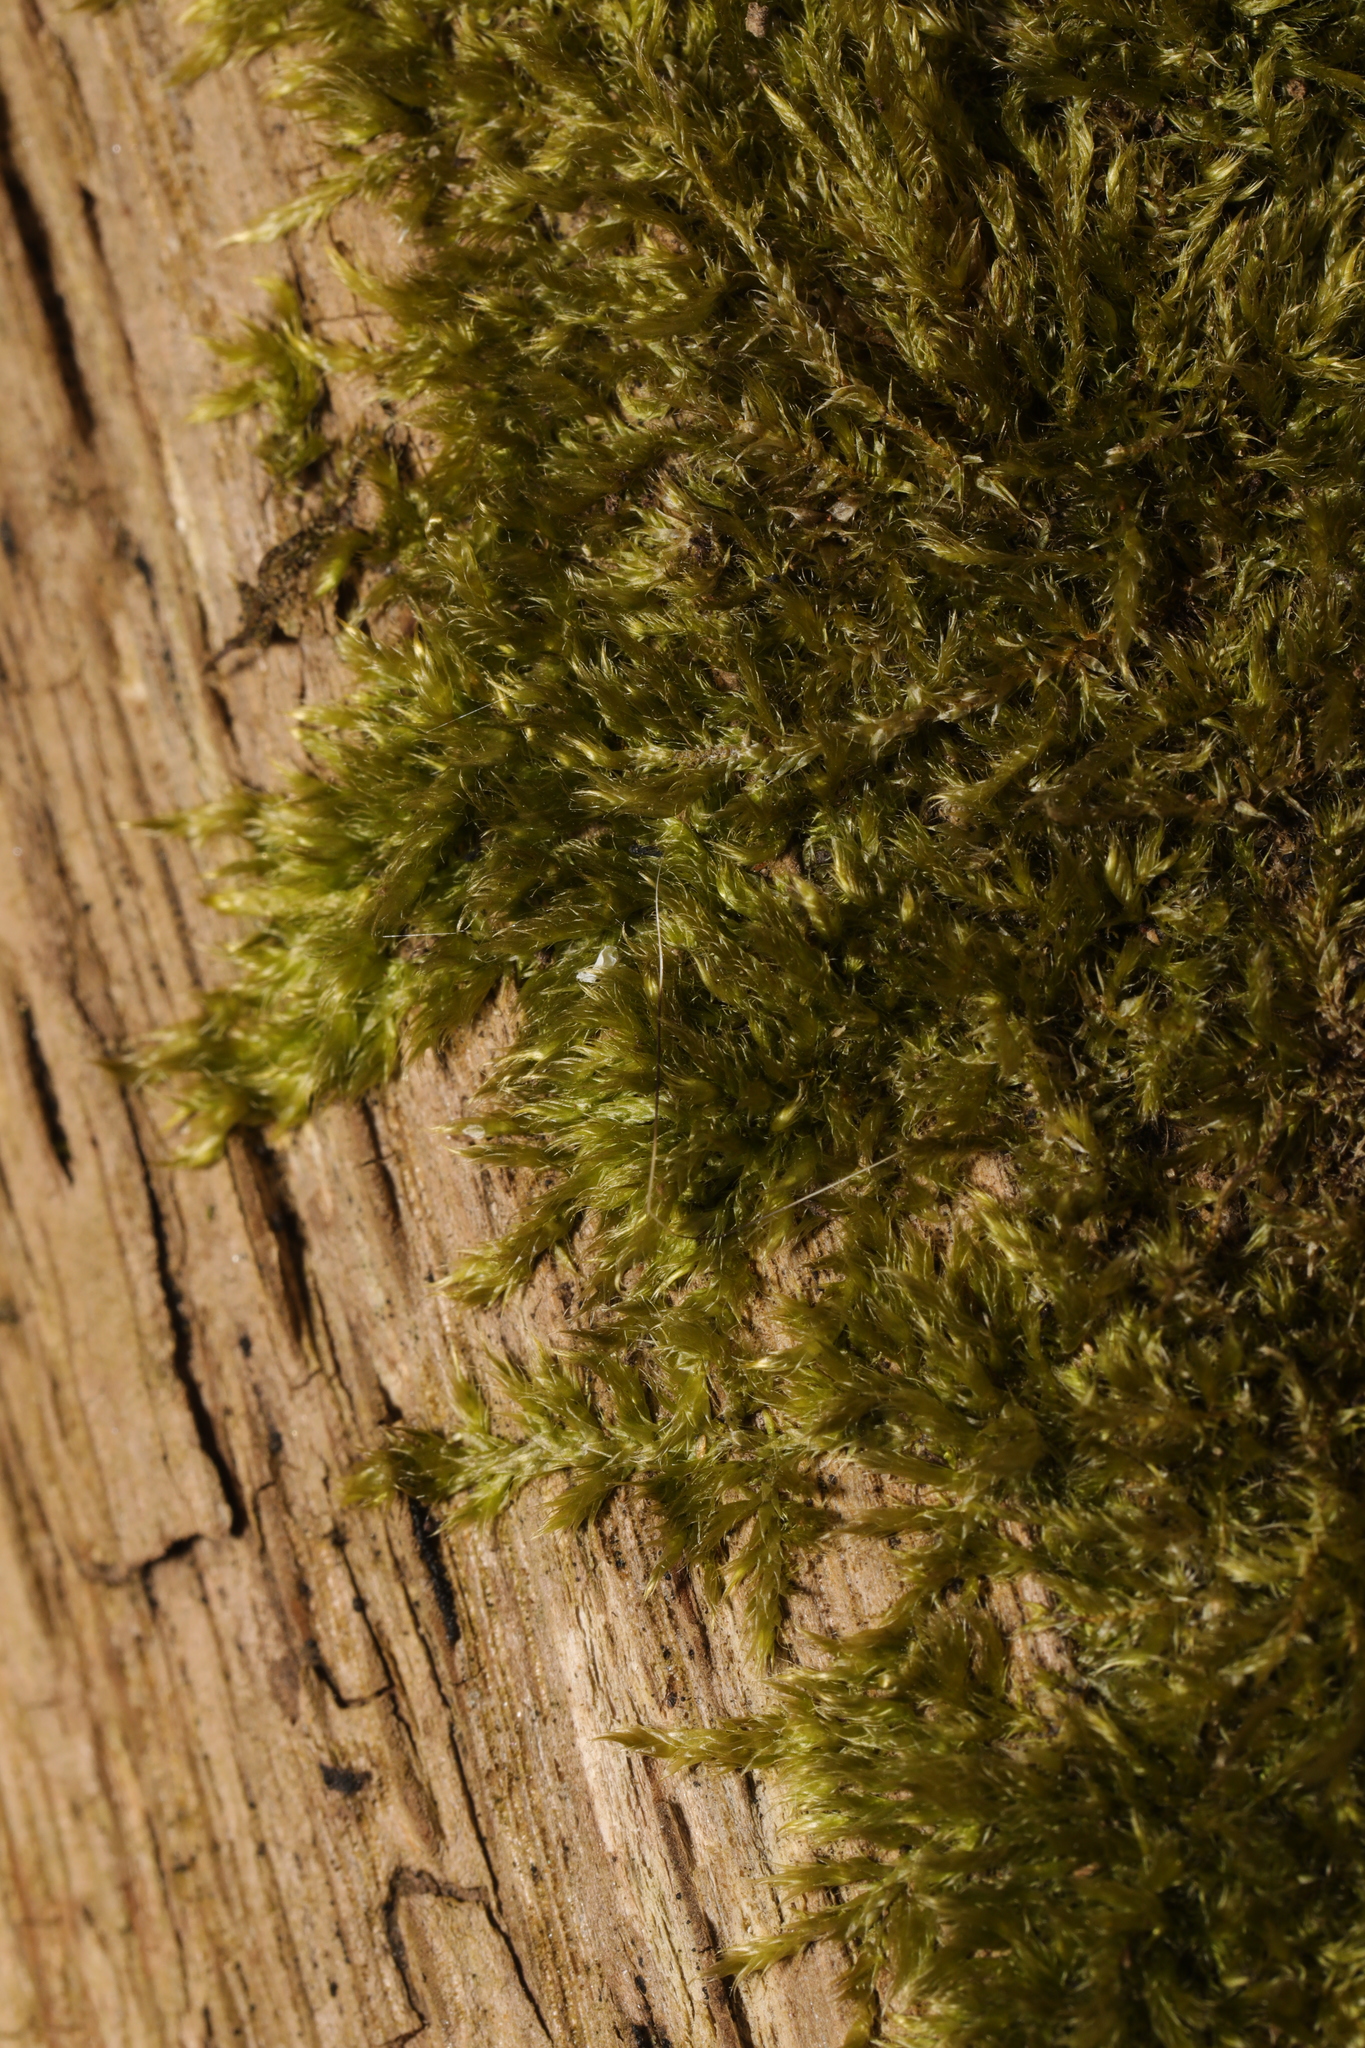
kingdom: Plantae
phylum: Bryophyta
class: Bryopsida
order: Hypnales
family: Hypnaceae
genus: Hypnum
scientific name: Hypnum cupressiforme
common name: Cypress-leaved plait-moss
